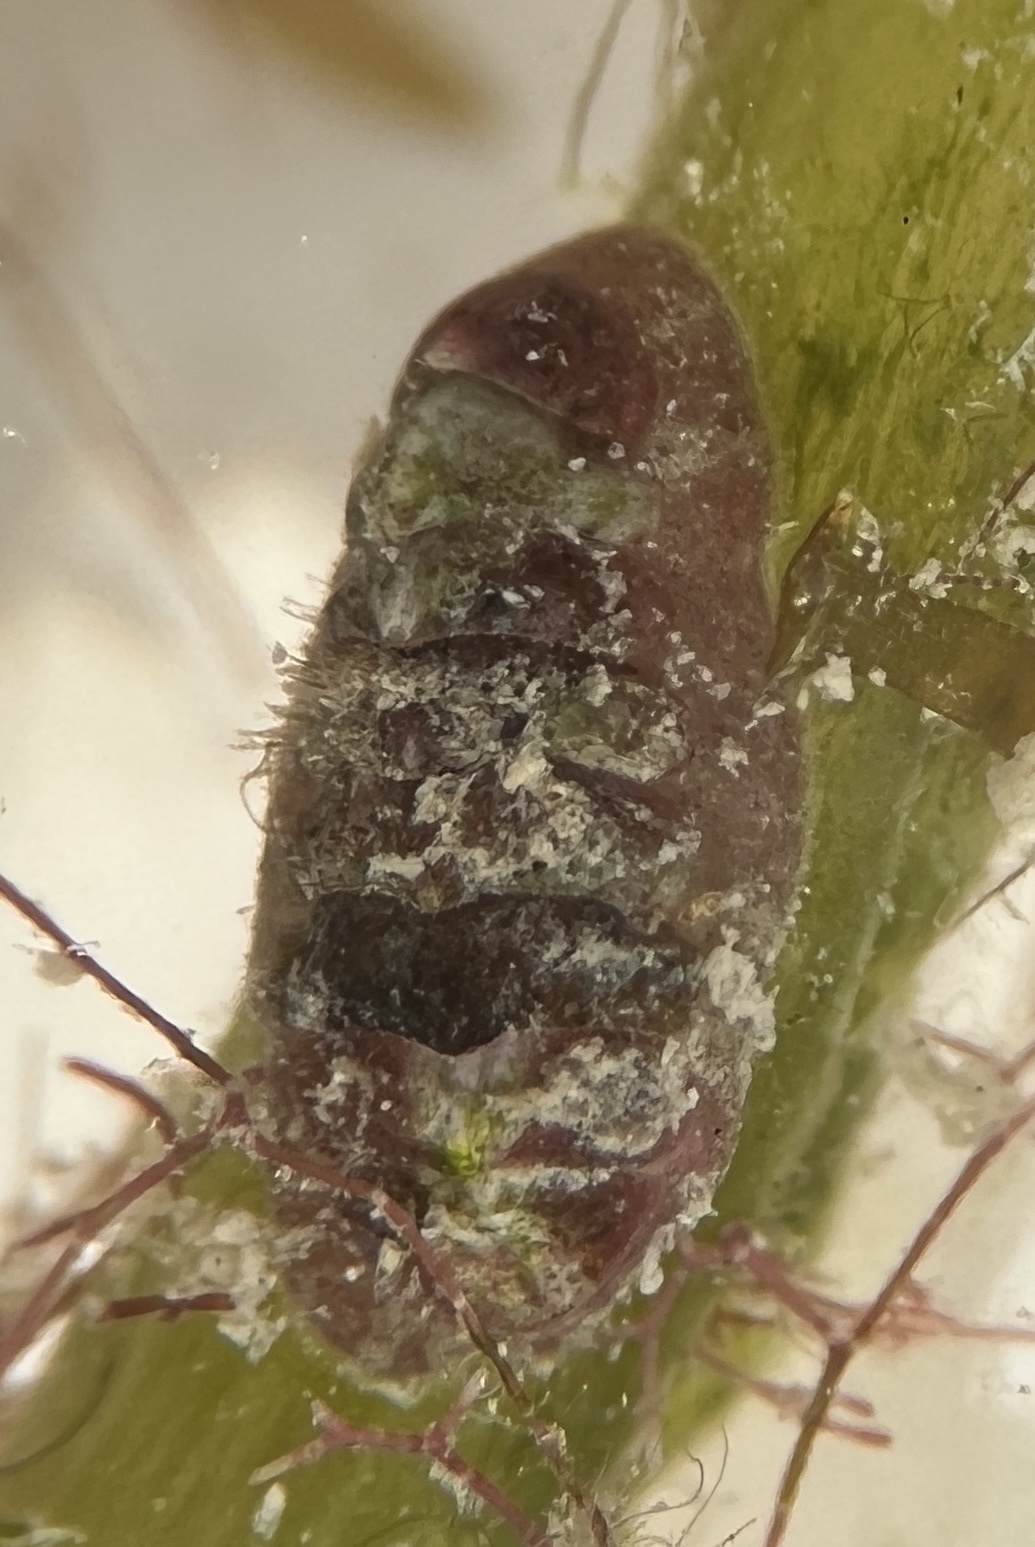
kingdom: Animalia
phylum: Mollusca
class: Polyplacophora
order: Chitonida
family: Tonicellidae
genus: Lepidochitona
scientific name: Lepidochitona liozonis
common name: Caribbean red chiton
